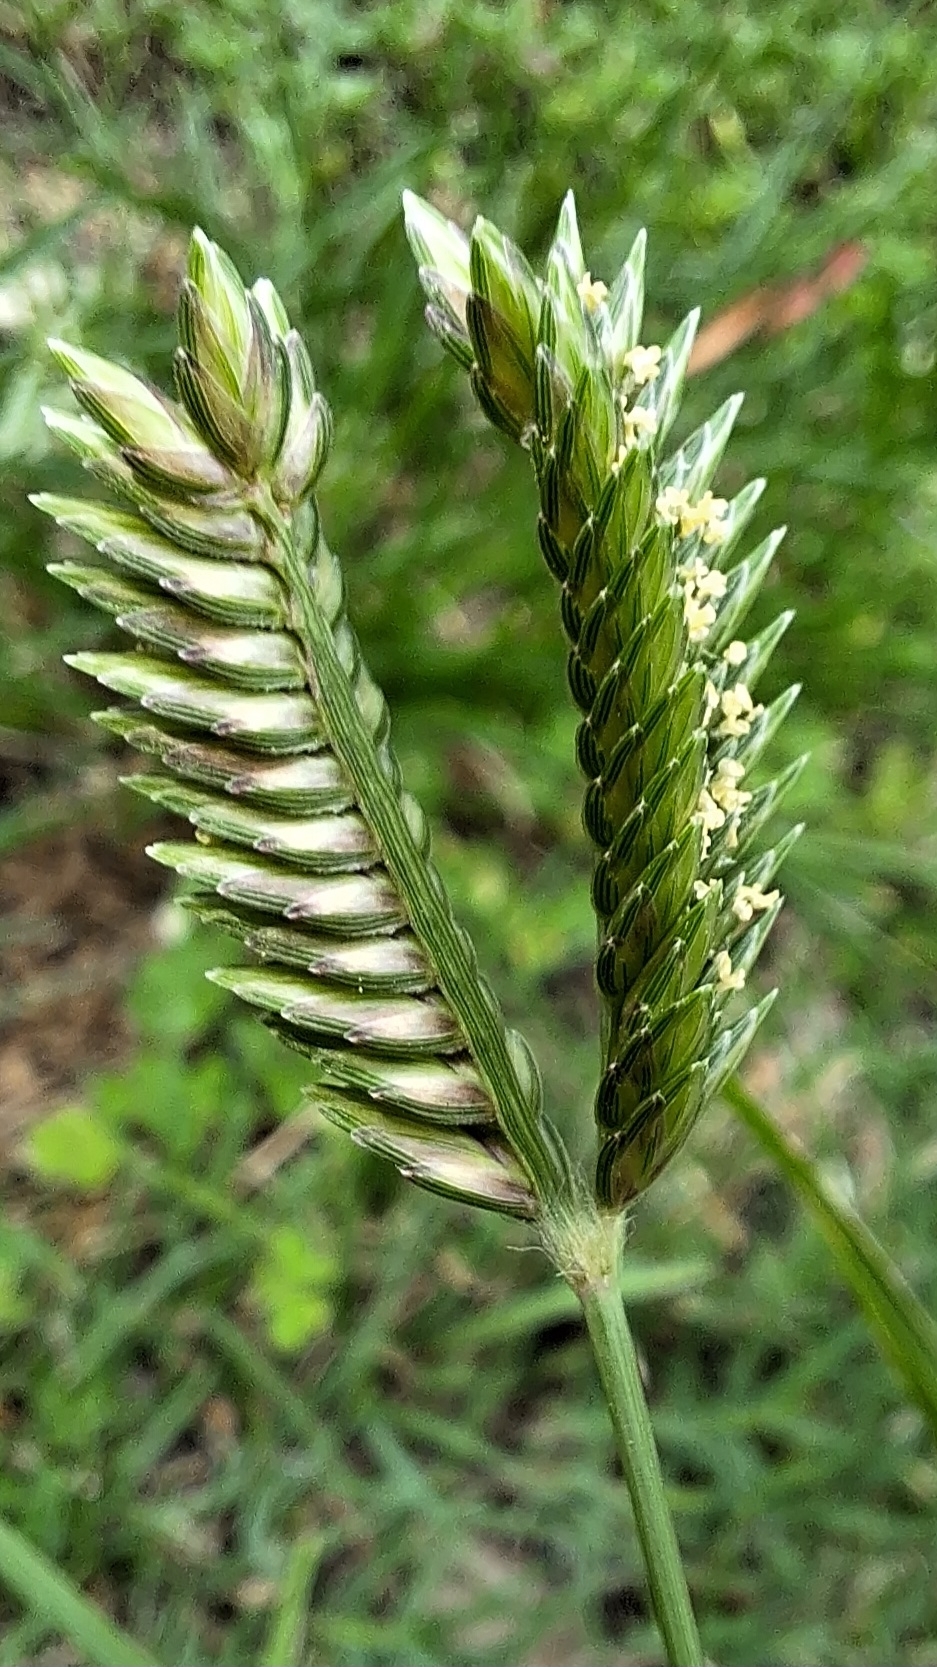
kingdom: Plantae
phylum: Tracheophyta
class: Liliopsida
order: Poales
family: Poaceae
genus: Eleusine
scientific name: Eleusine tristachya
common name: American yard-grass
